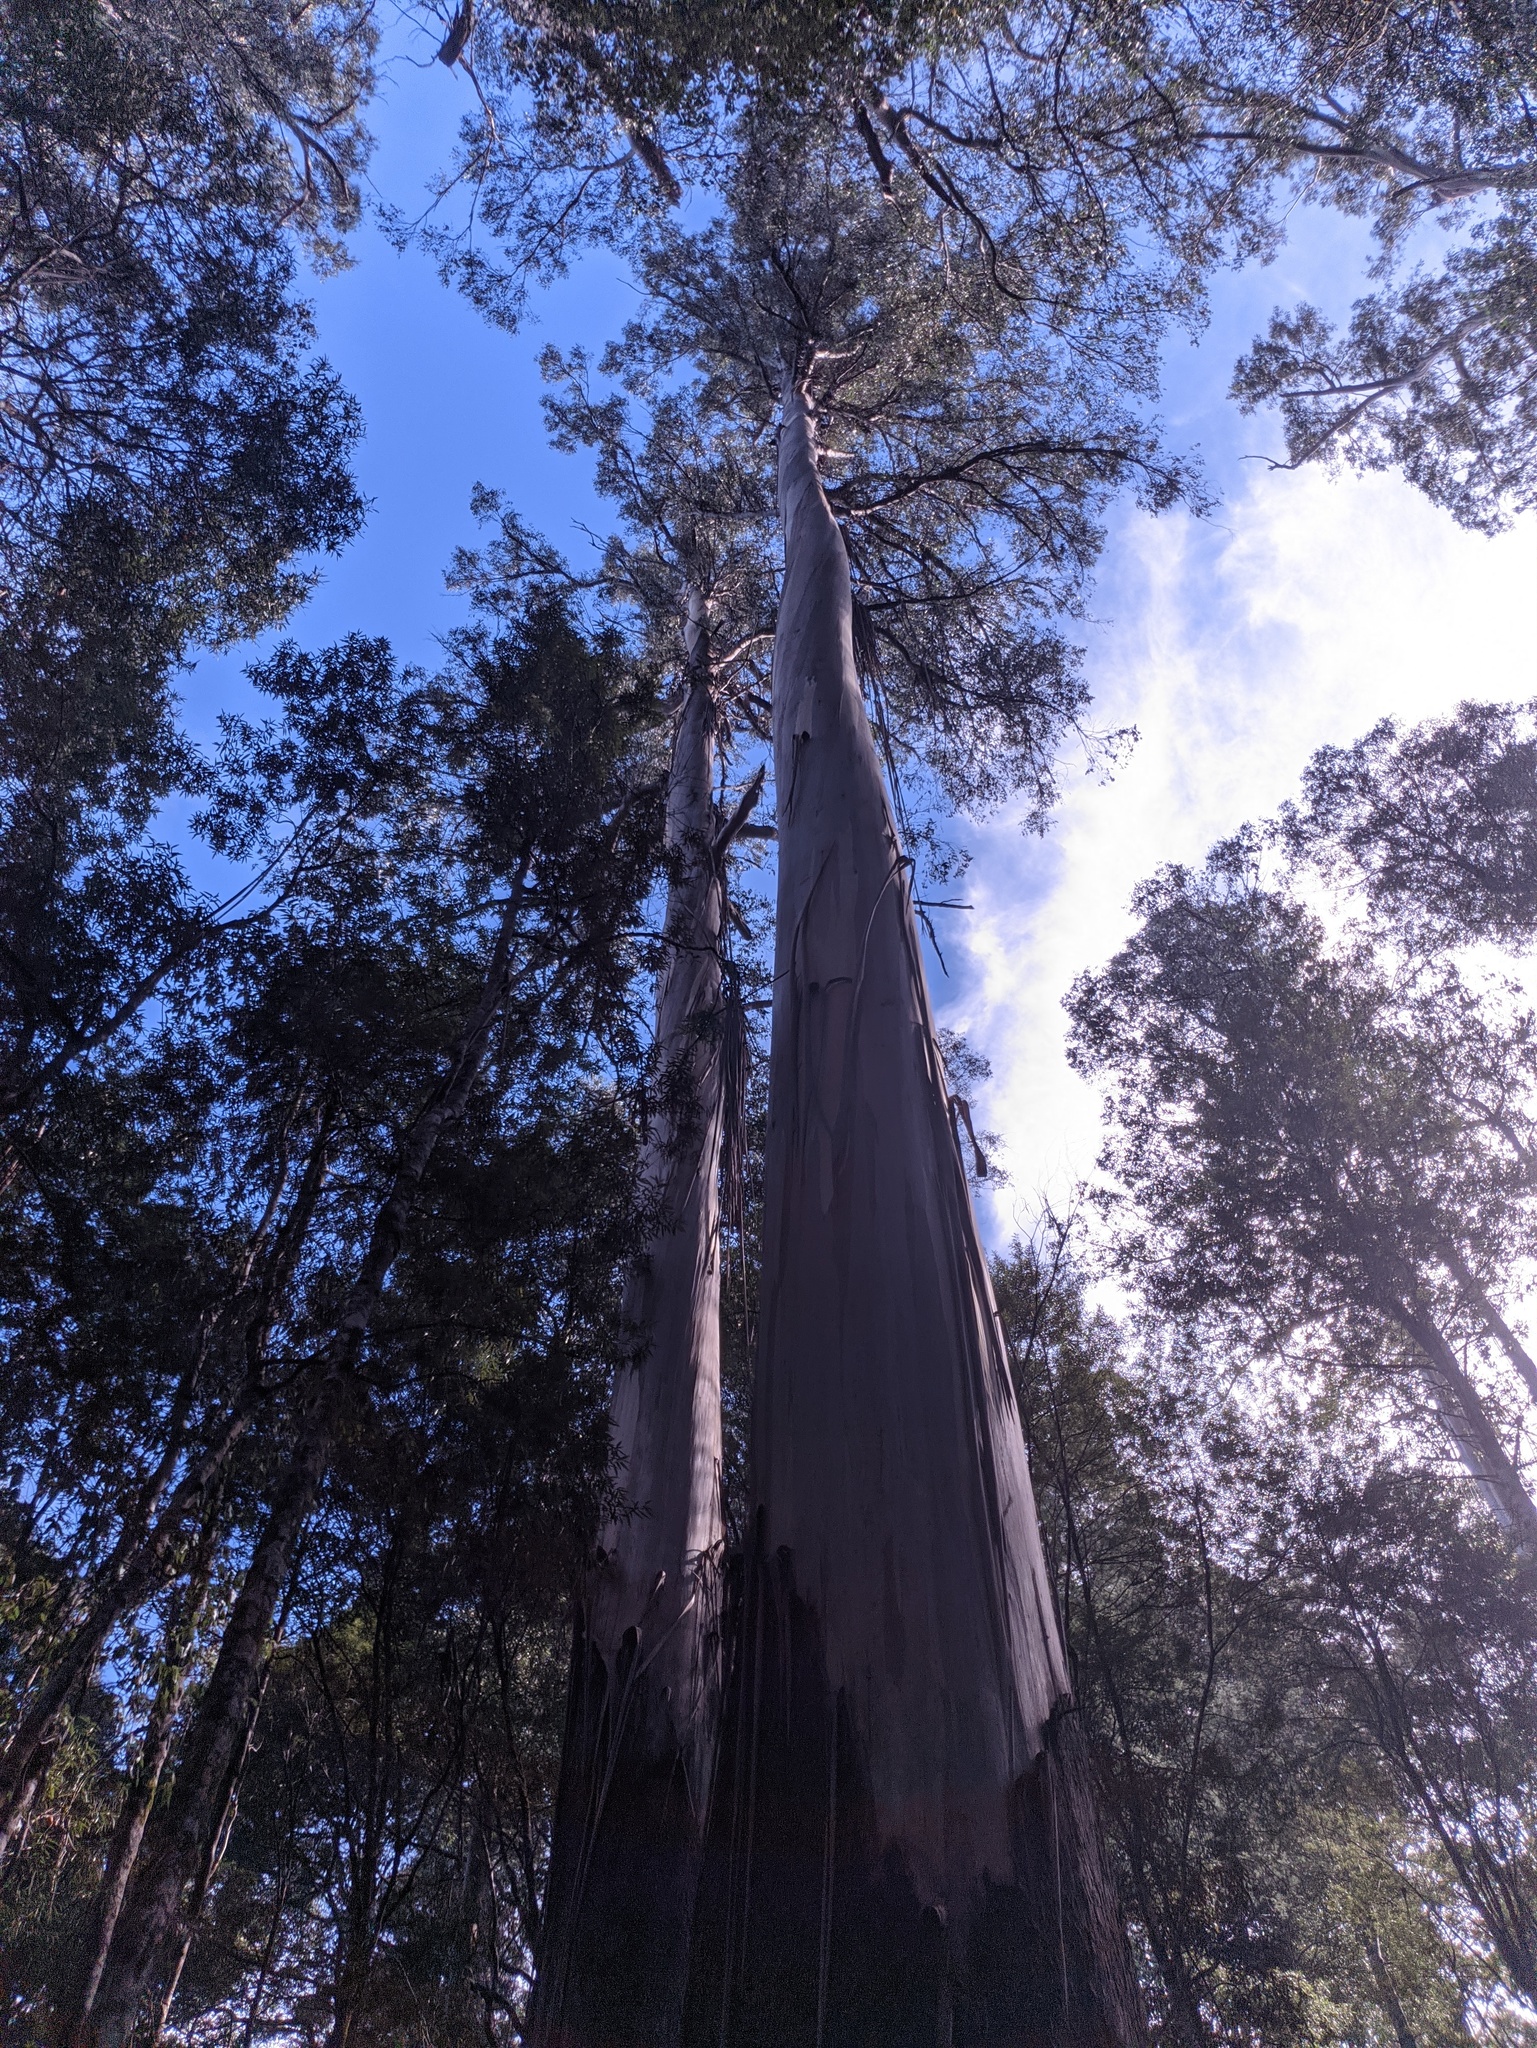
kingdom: Plantae
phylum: Tracheophyta
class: Magnoliopsida
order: Myrtales
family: Myrtaceae
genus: Eucalyptus
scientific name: Eucalyptus regnans
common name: Stringy gum
